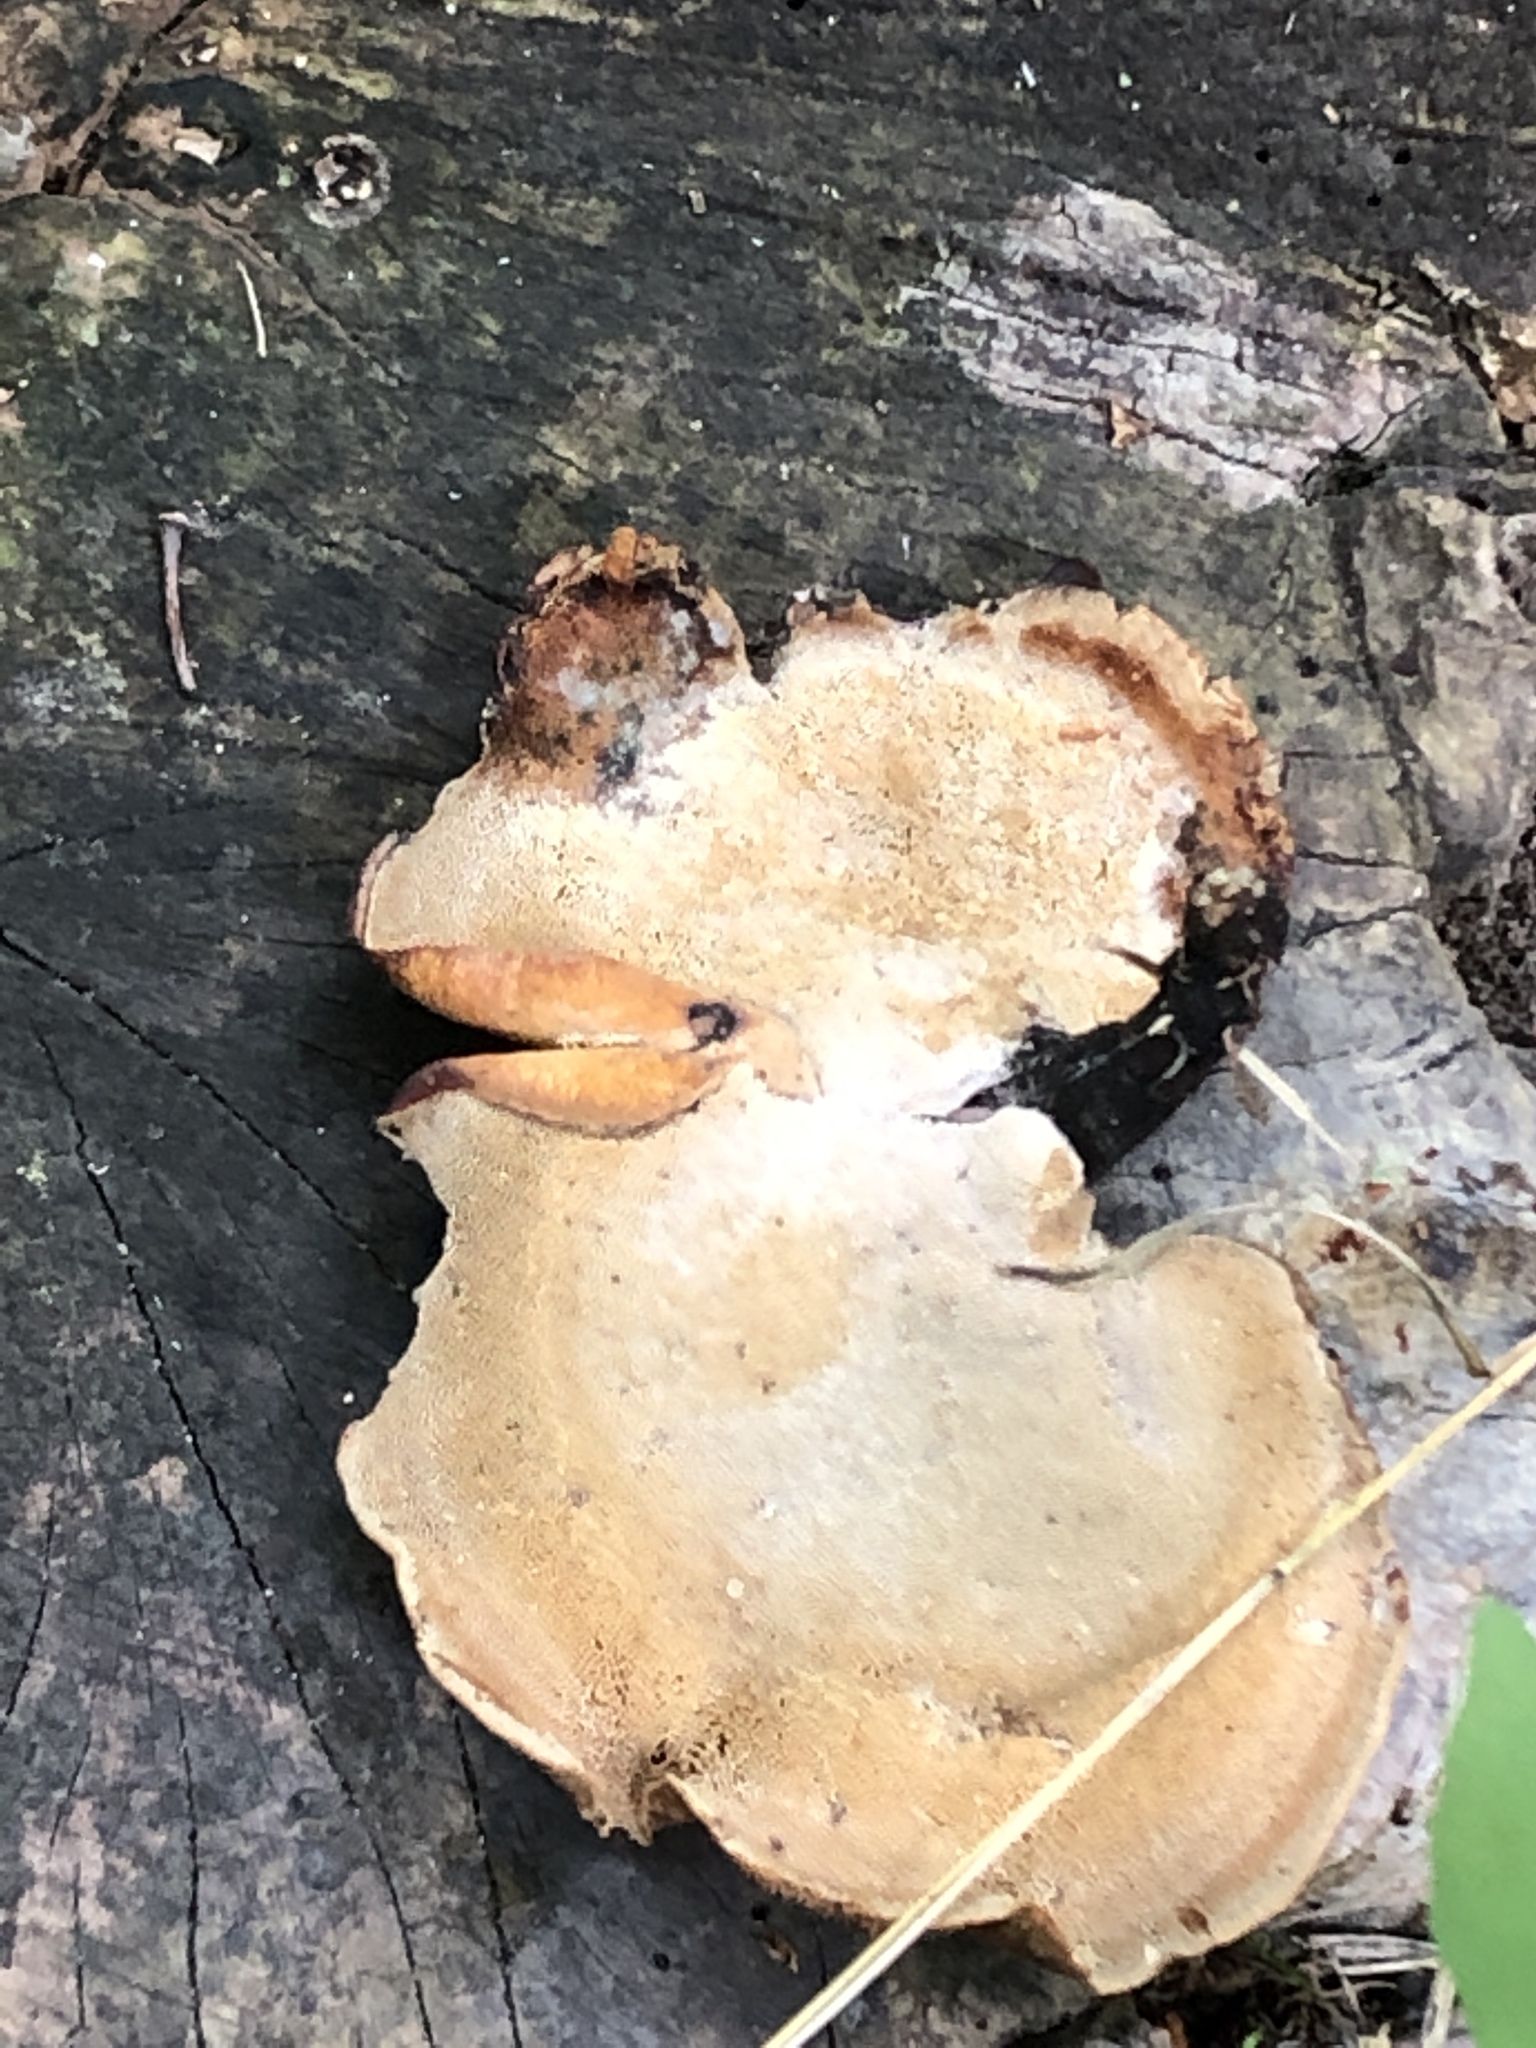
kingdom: Fungi
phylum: Basidiomycota
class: Agaricomycetes
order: Polyporales
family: Polyporaceae
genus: Cerioporus
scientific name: Cerioporus leptocephalus
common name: Blackfoot polypore
